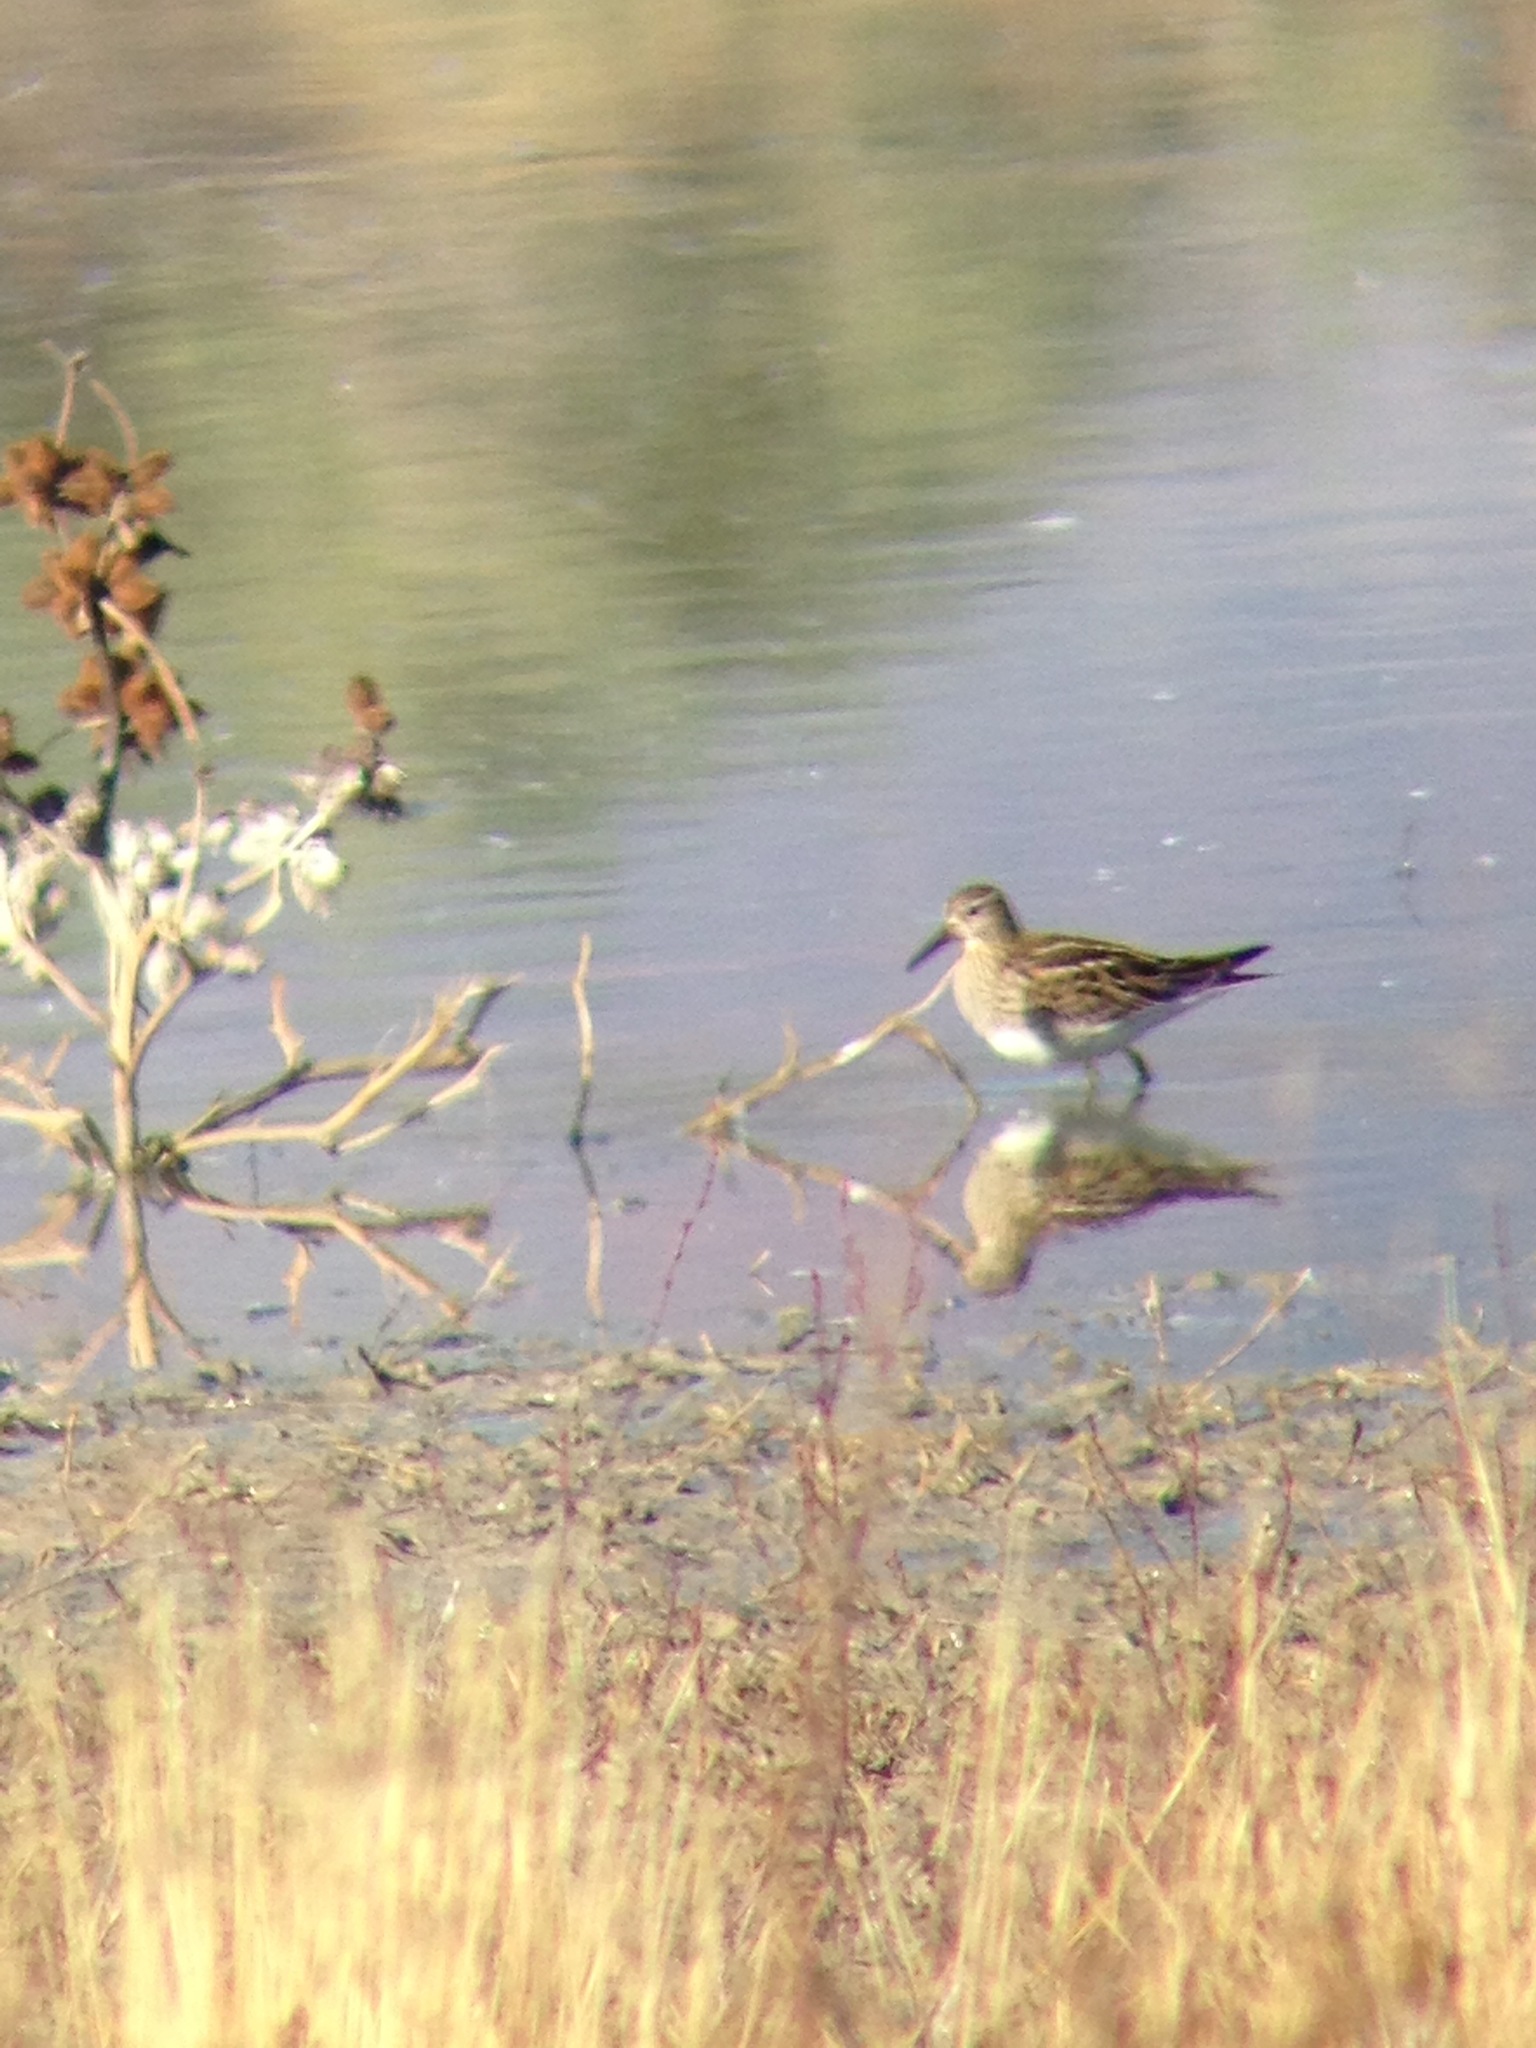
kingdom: Animalia
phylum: Chordata
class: Aves
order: Charadriiformes
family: Scolopacidae
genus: Calidris
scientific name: Calidris melanotos
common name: Pectoral sandpiper
